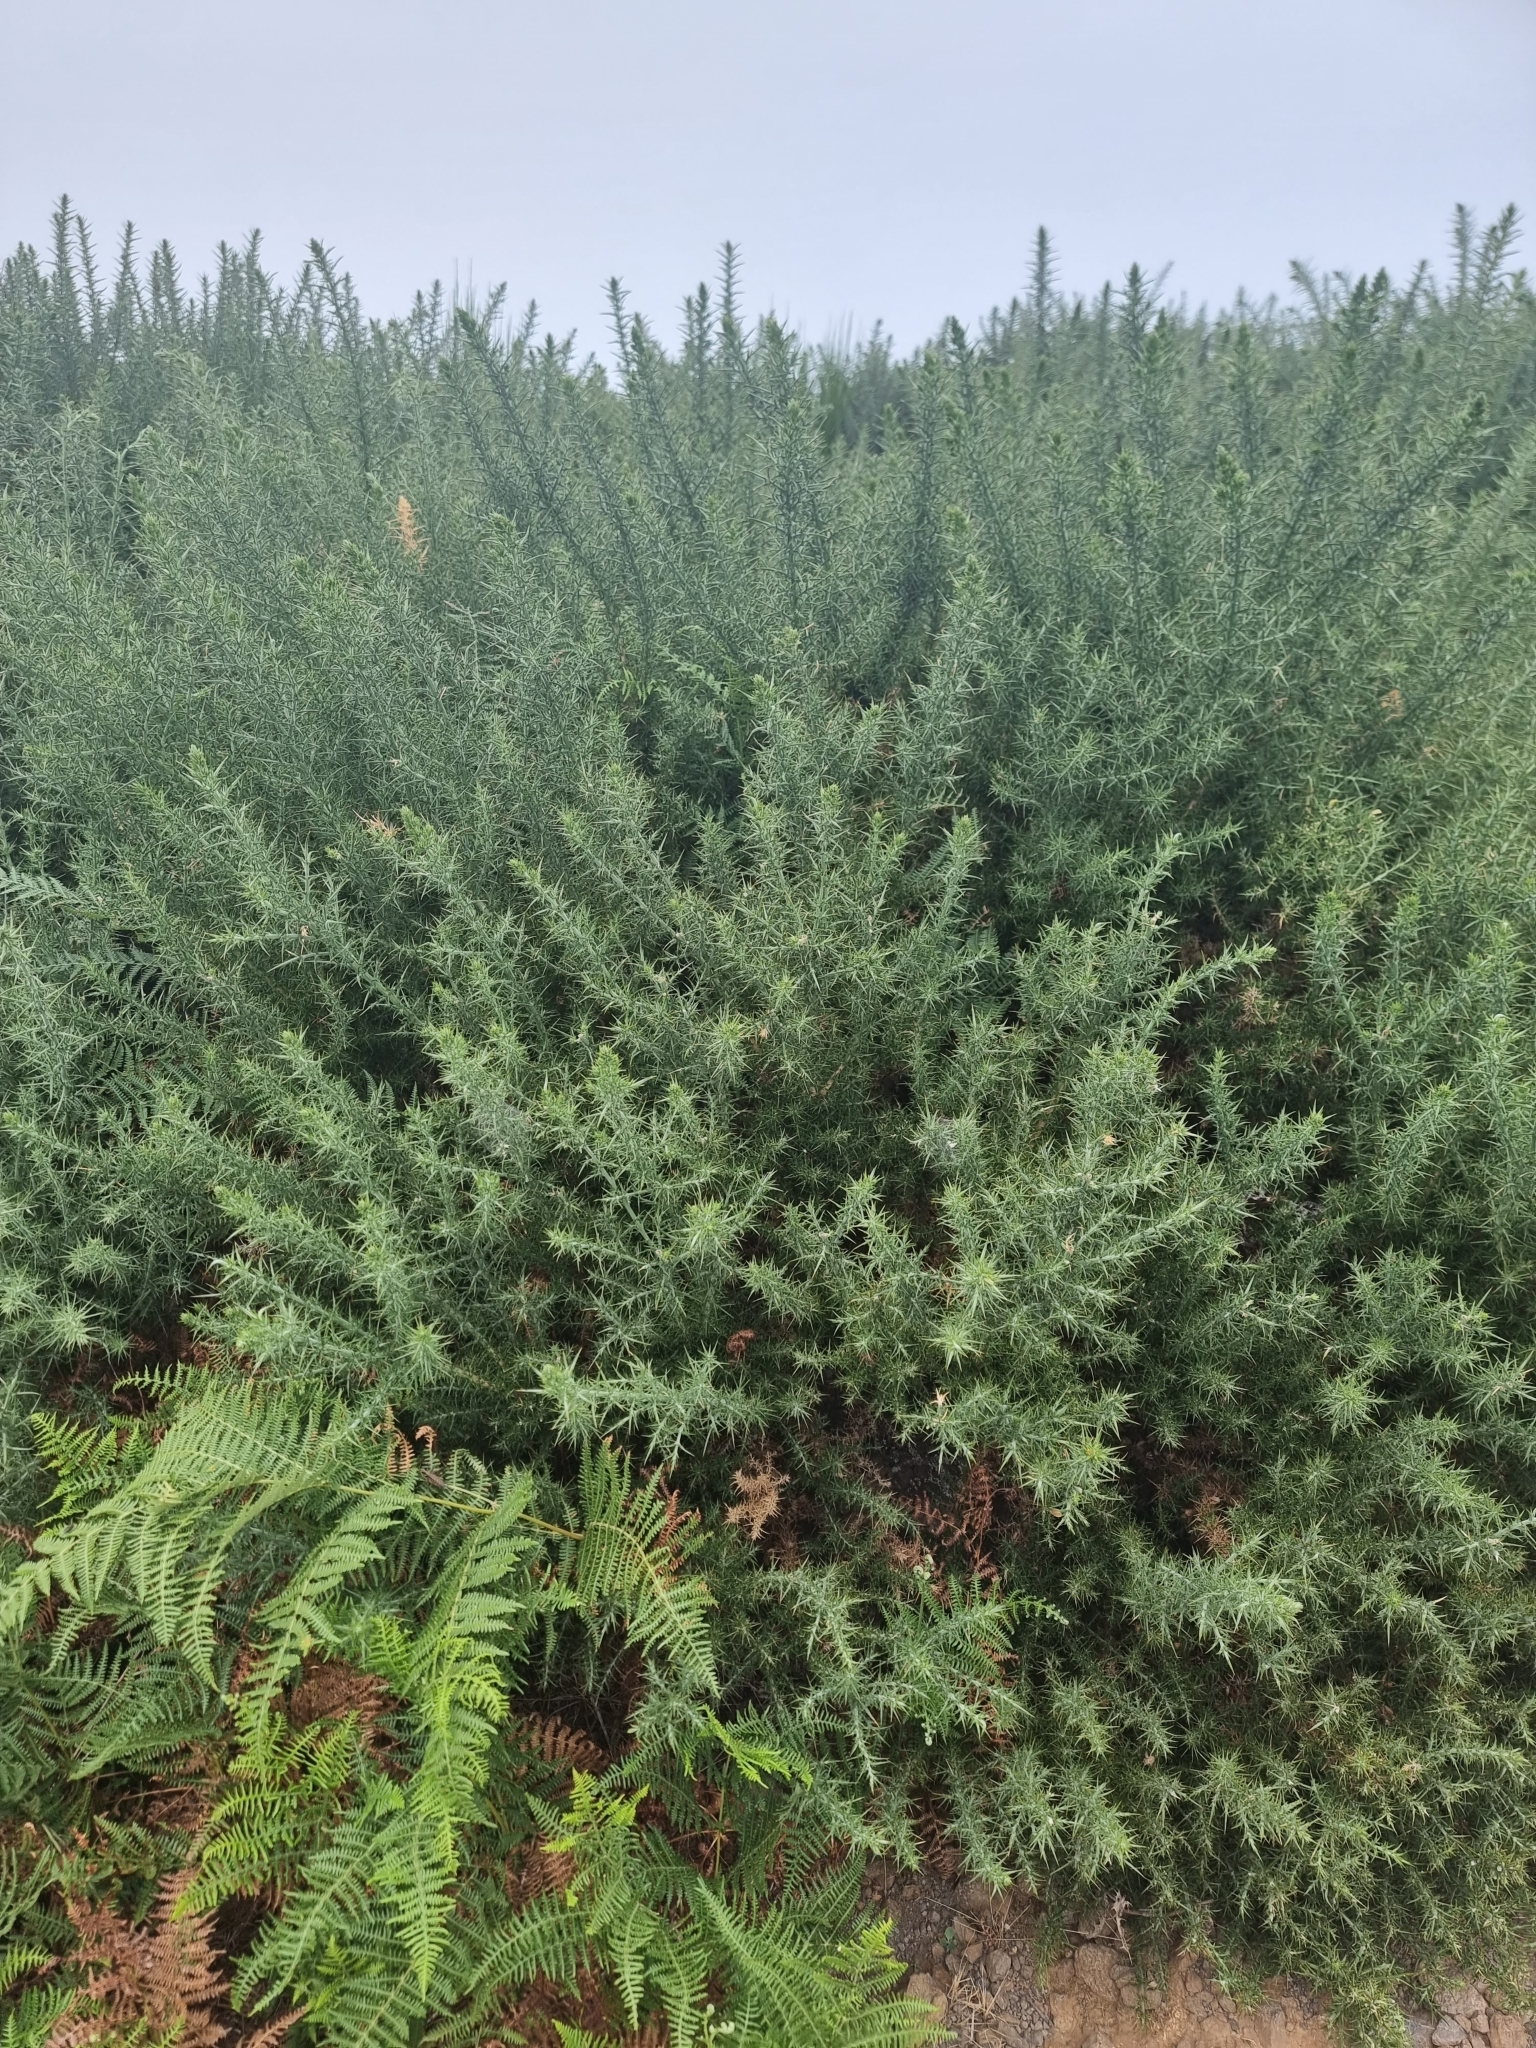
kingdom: Plantae
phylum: Tracheophyta
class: Magnoliopsida
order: Fabales
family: Fabaceae
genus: Ulex
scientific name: Ulex europaeus
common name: Common gorse
